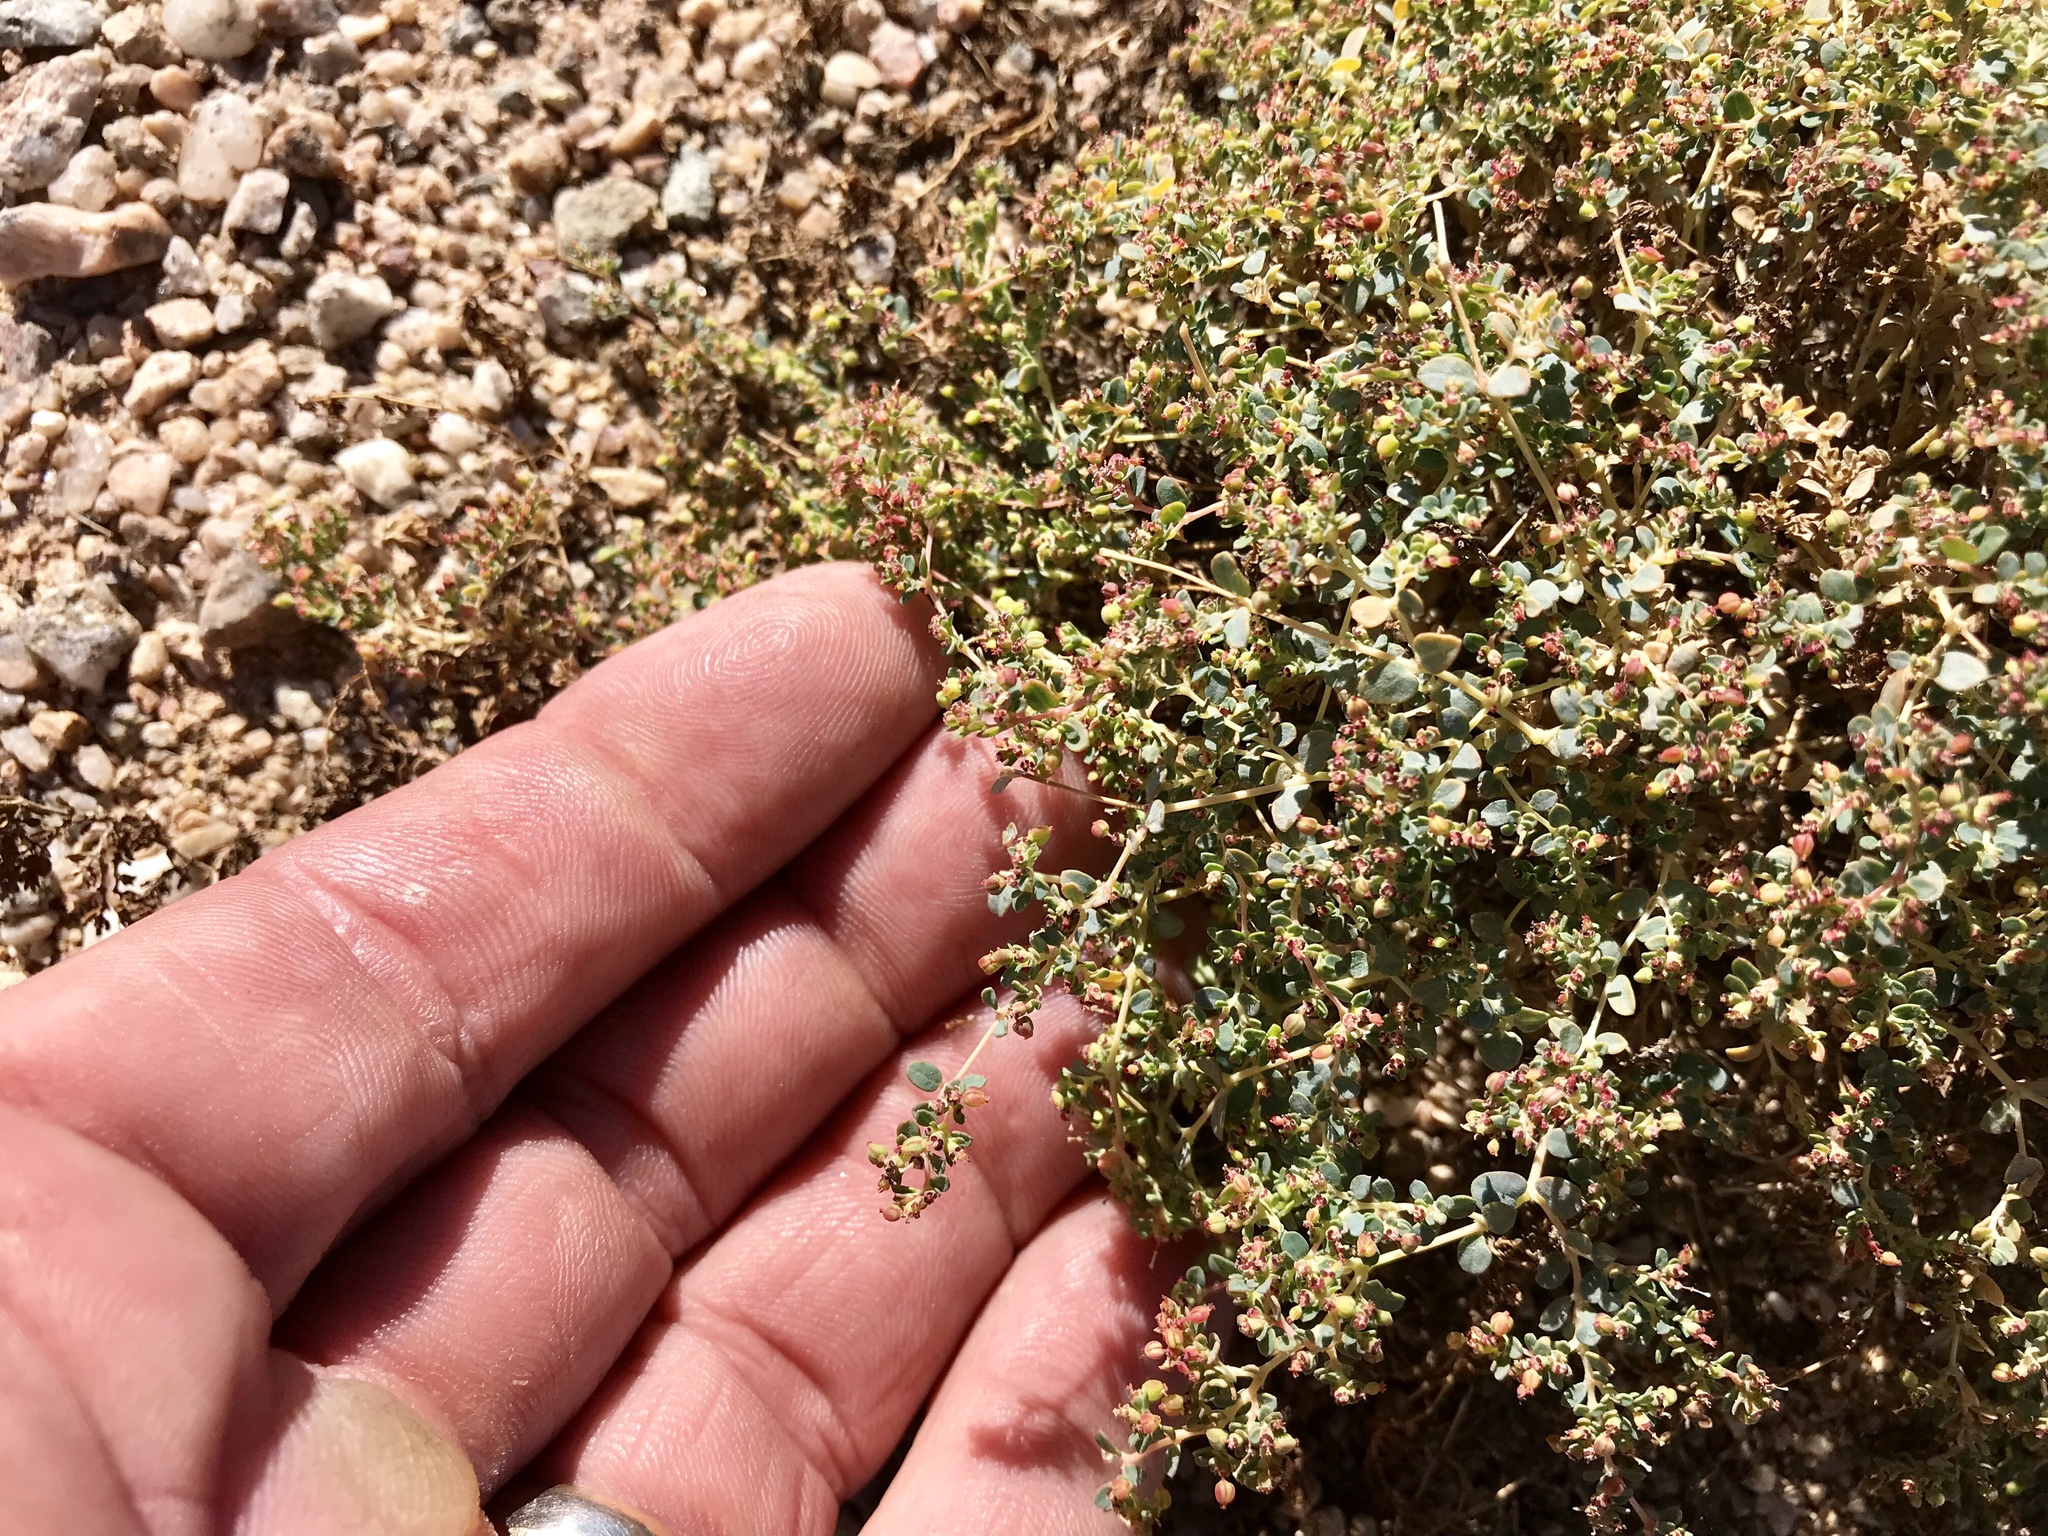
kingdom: Plantae
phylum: Tracheophyta
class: Magnoliopsida
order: Malpighiales
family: Euphorbiaceae
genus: Euphorbia
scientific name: Euphorbia polycarpa
